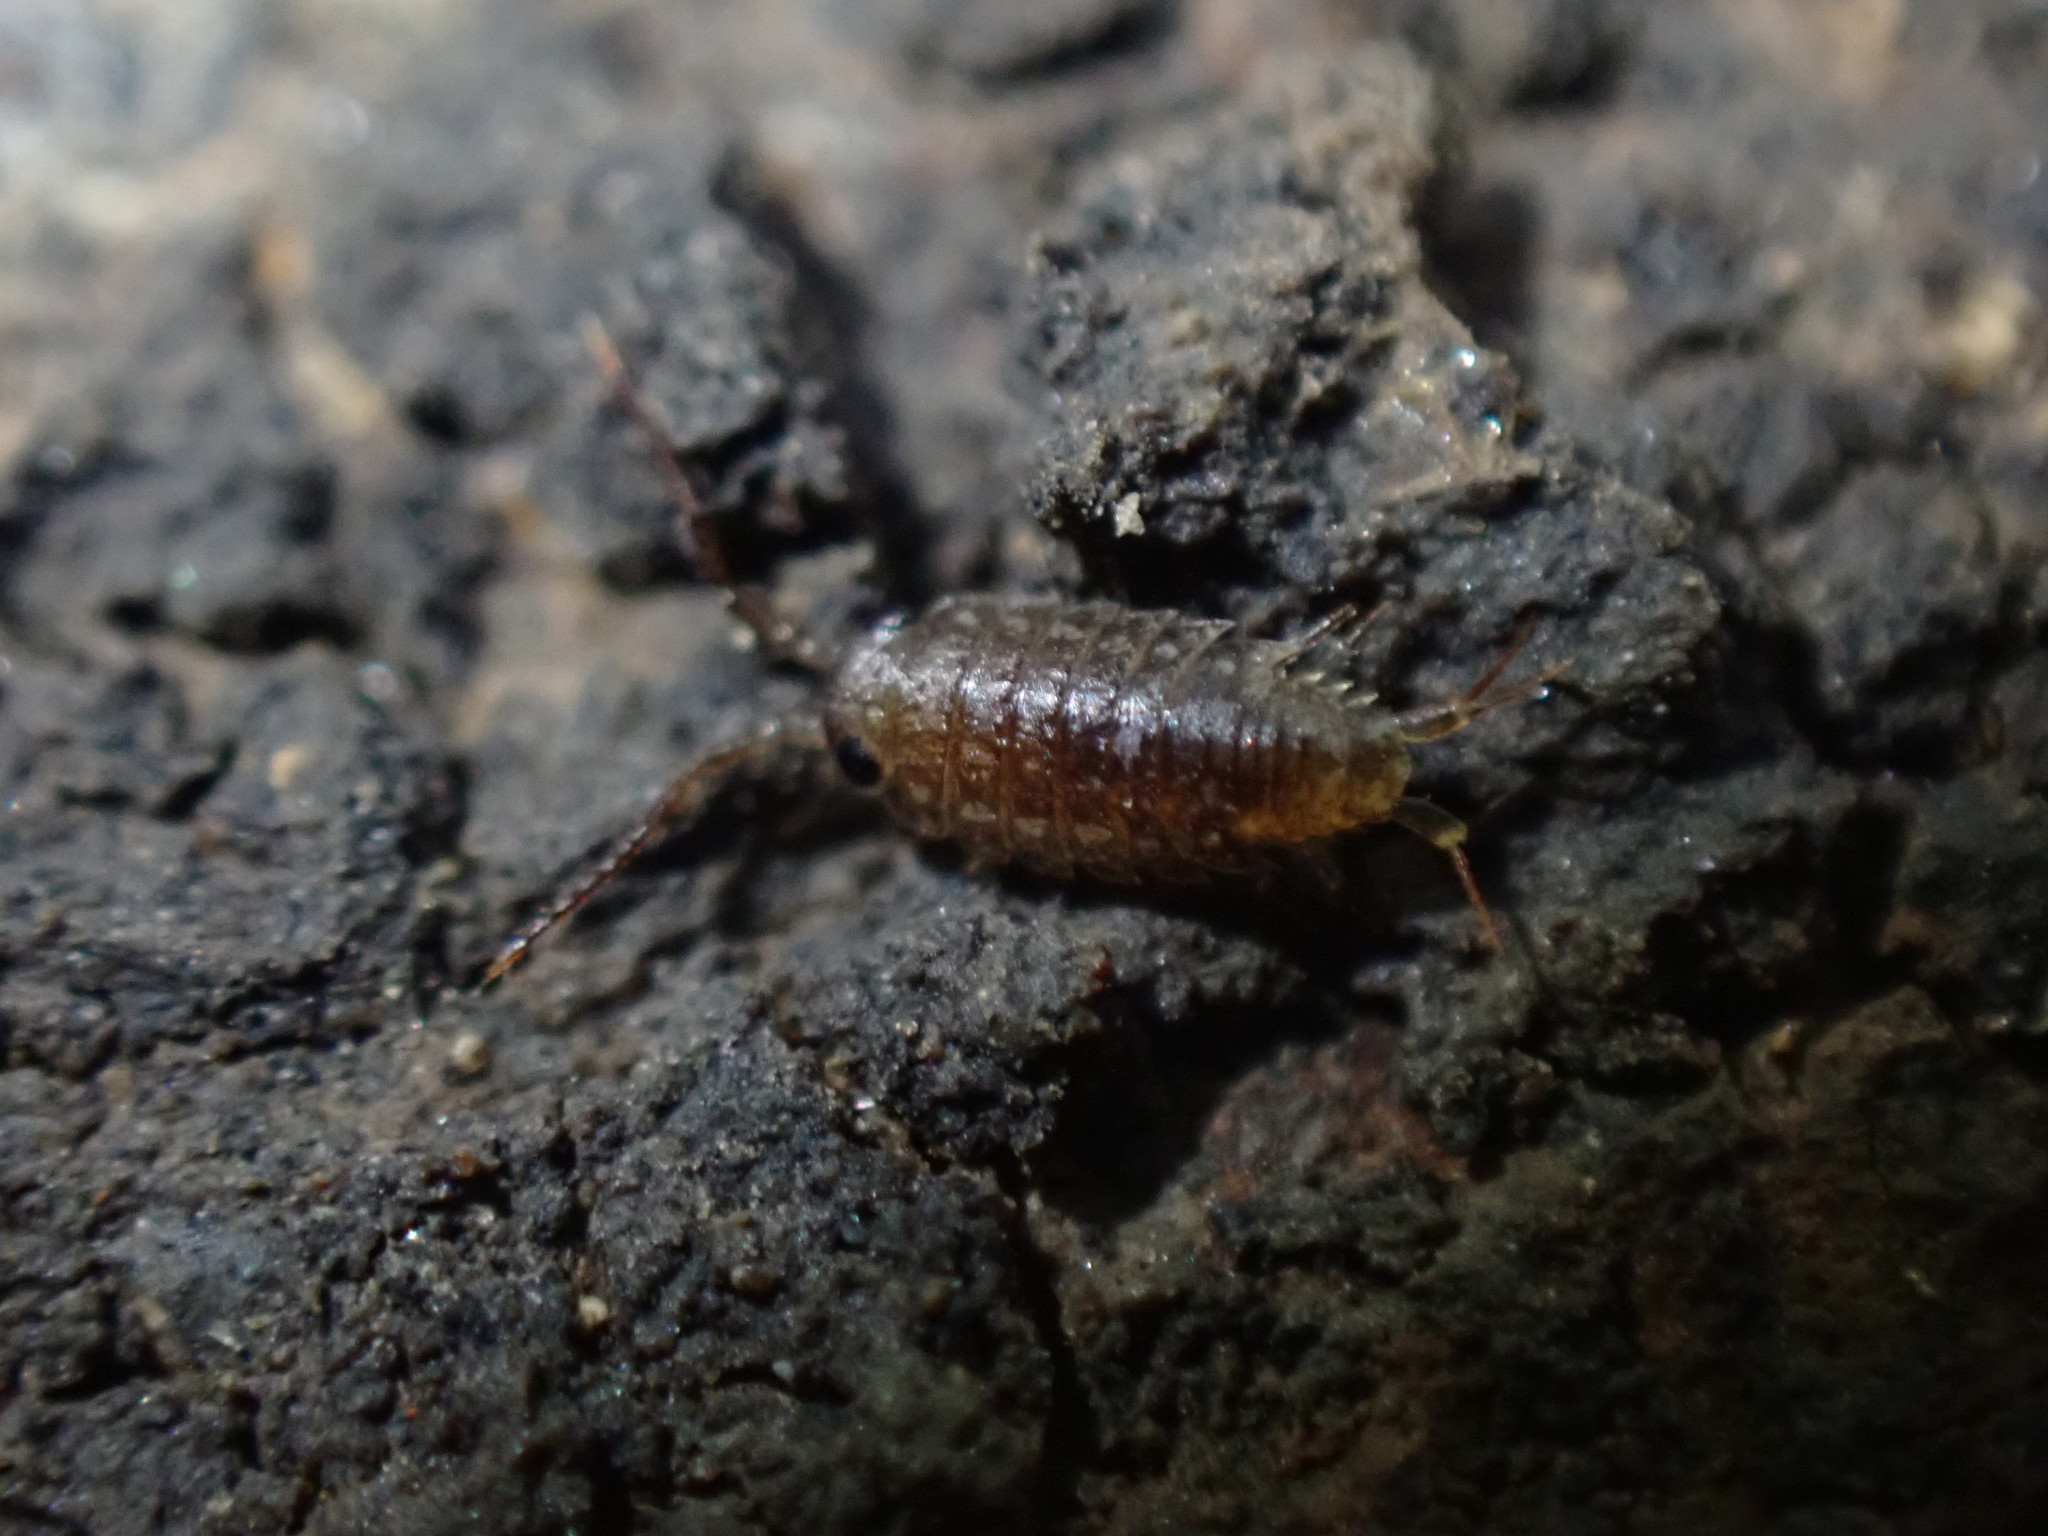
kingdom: Animalia
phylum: Arthropoda
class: Malacostraca
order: Isopoda
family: Ligiidae
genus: Ligia
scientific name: Ligia novizealandiae
